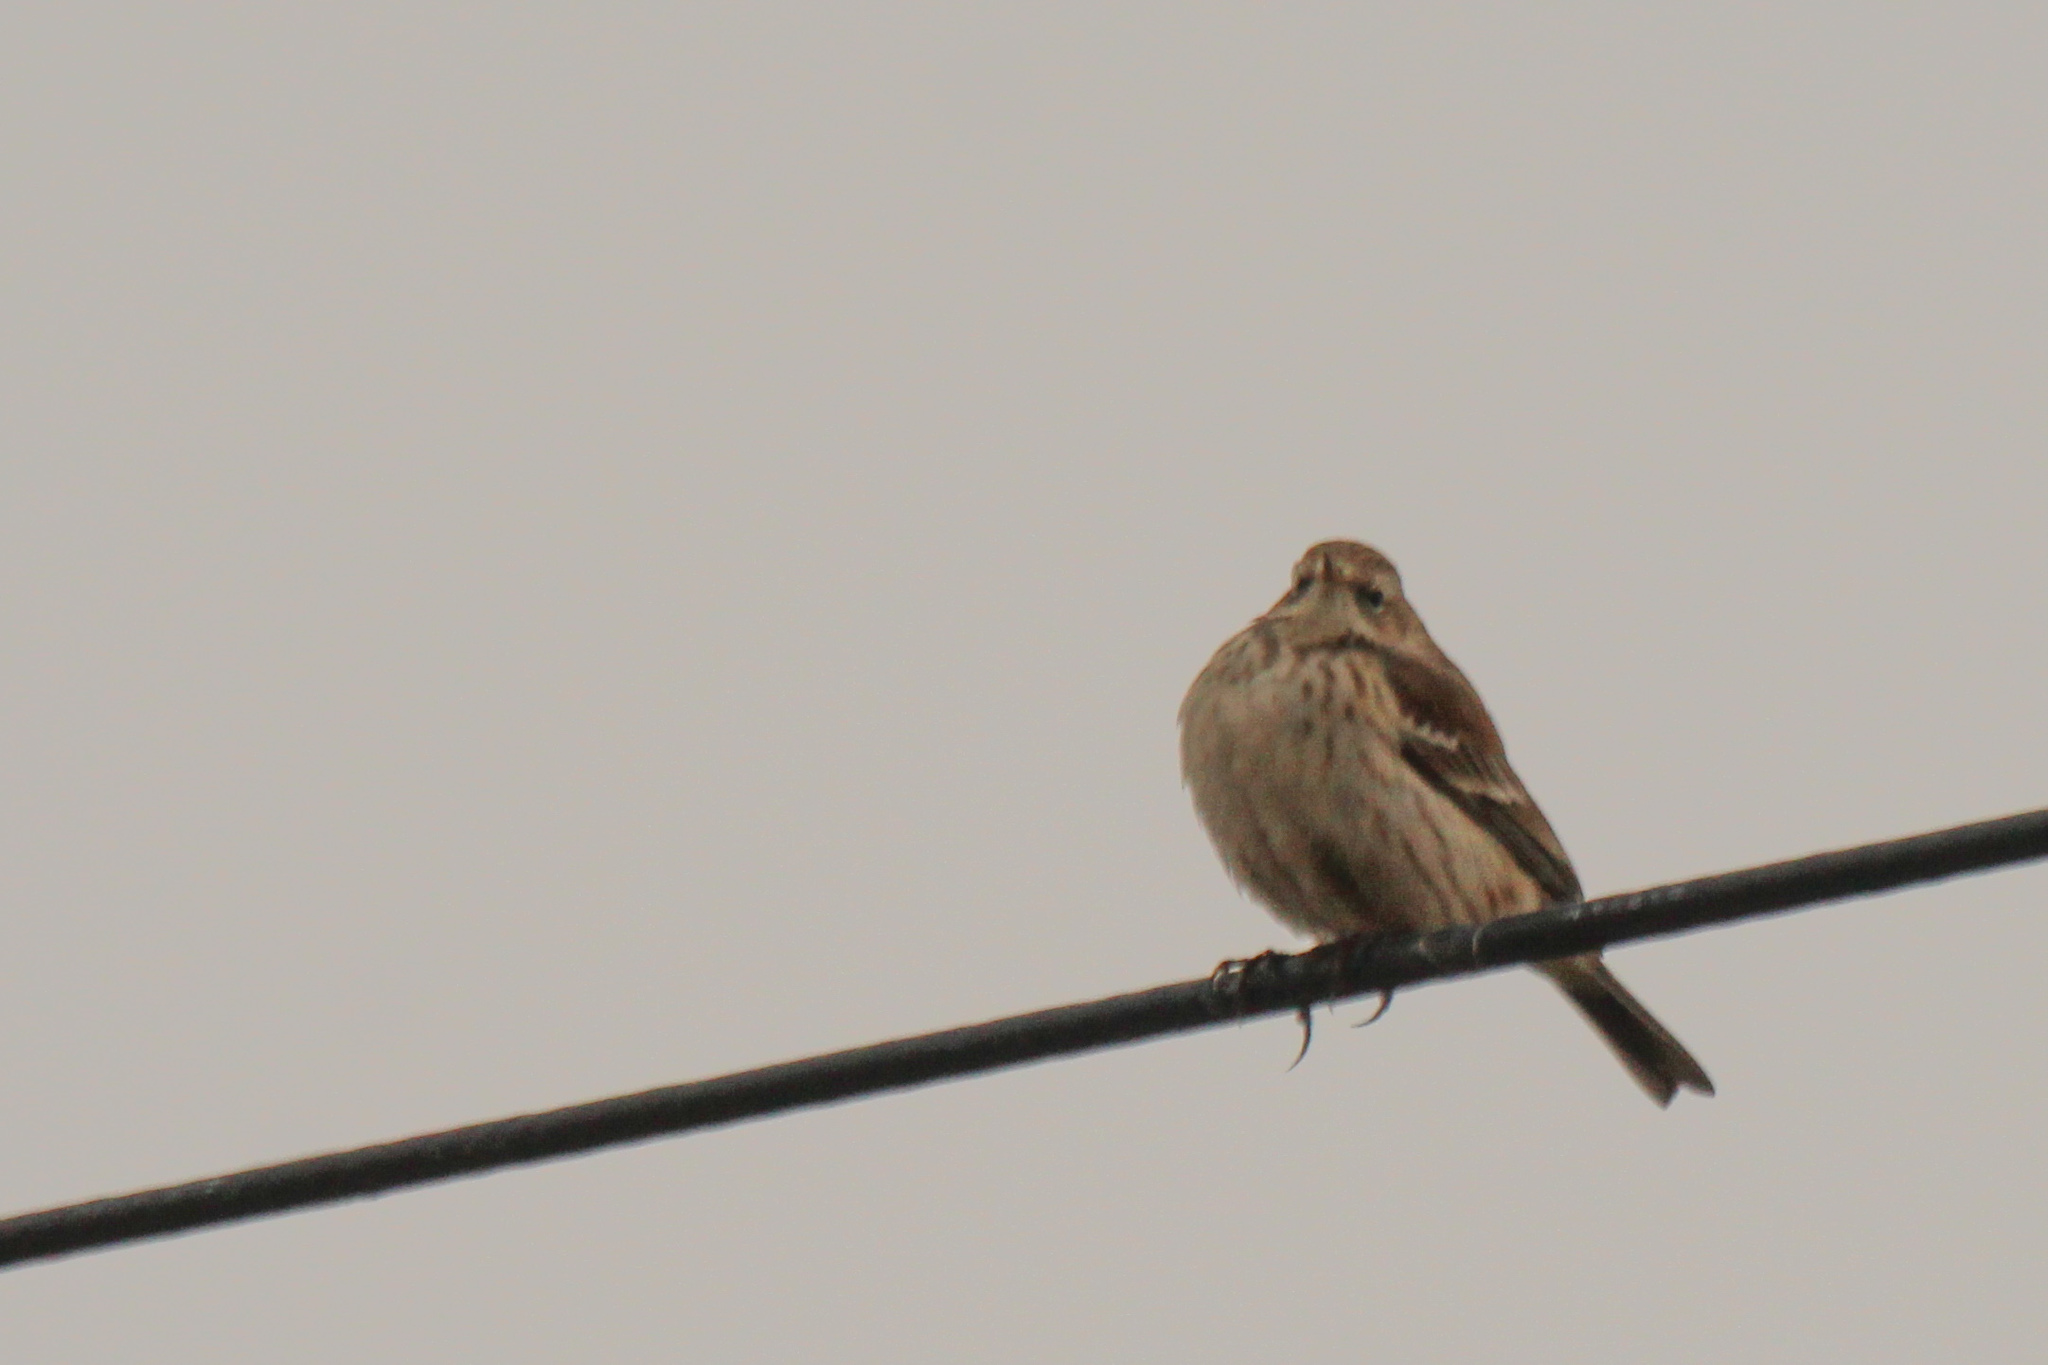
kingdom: Animalia
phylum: Chordata
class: Aves
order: Passeriformes
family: Motacillidae
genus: Anthus
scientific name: Anthus spinoletta
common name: Water pipit
